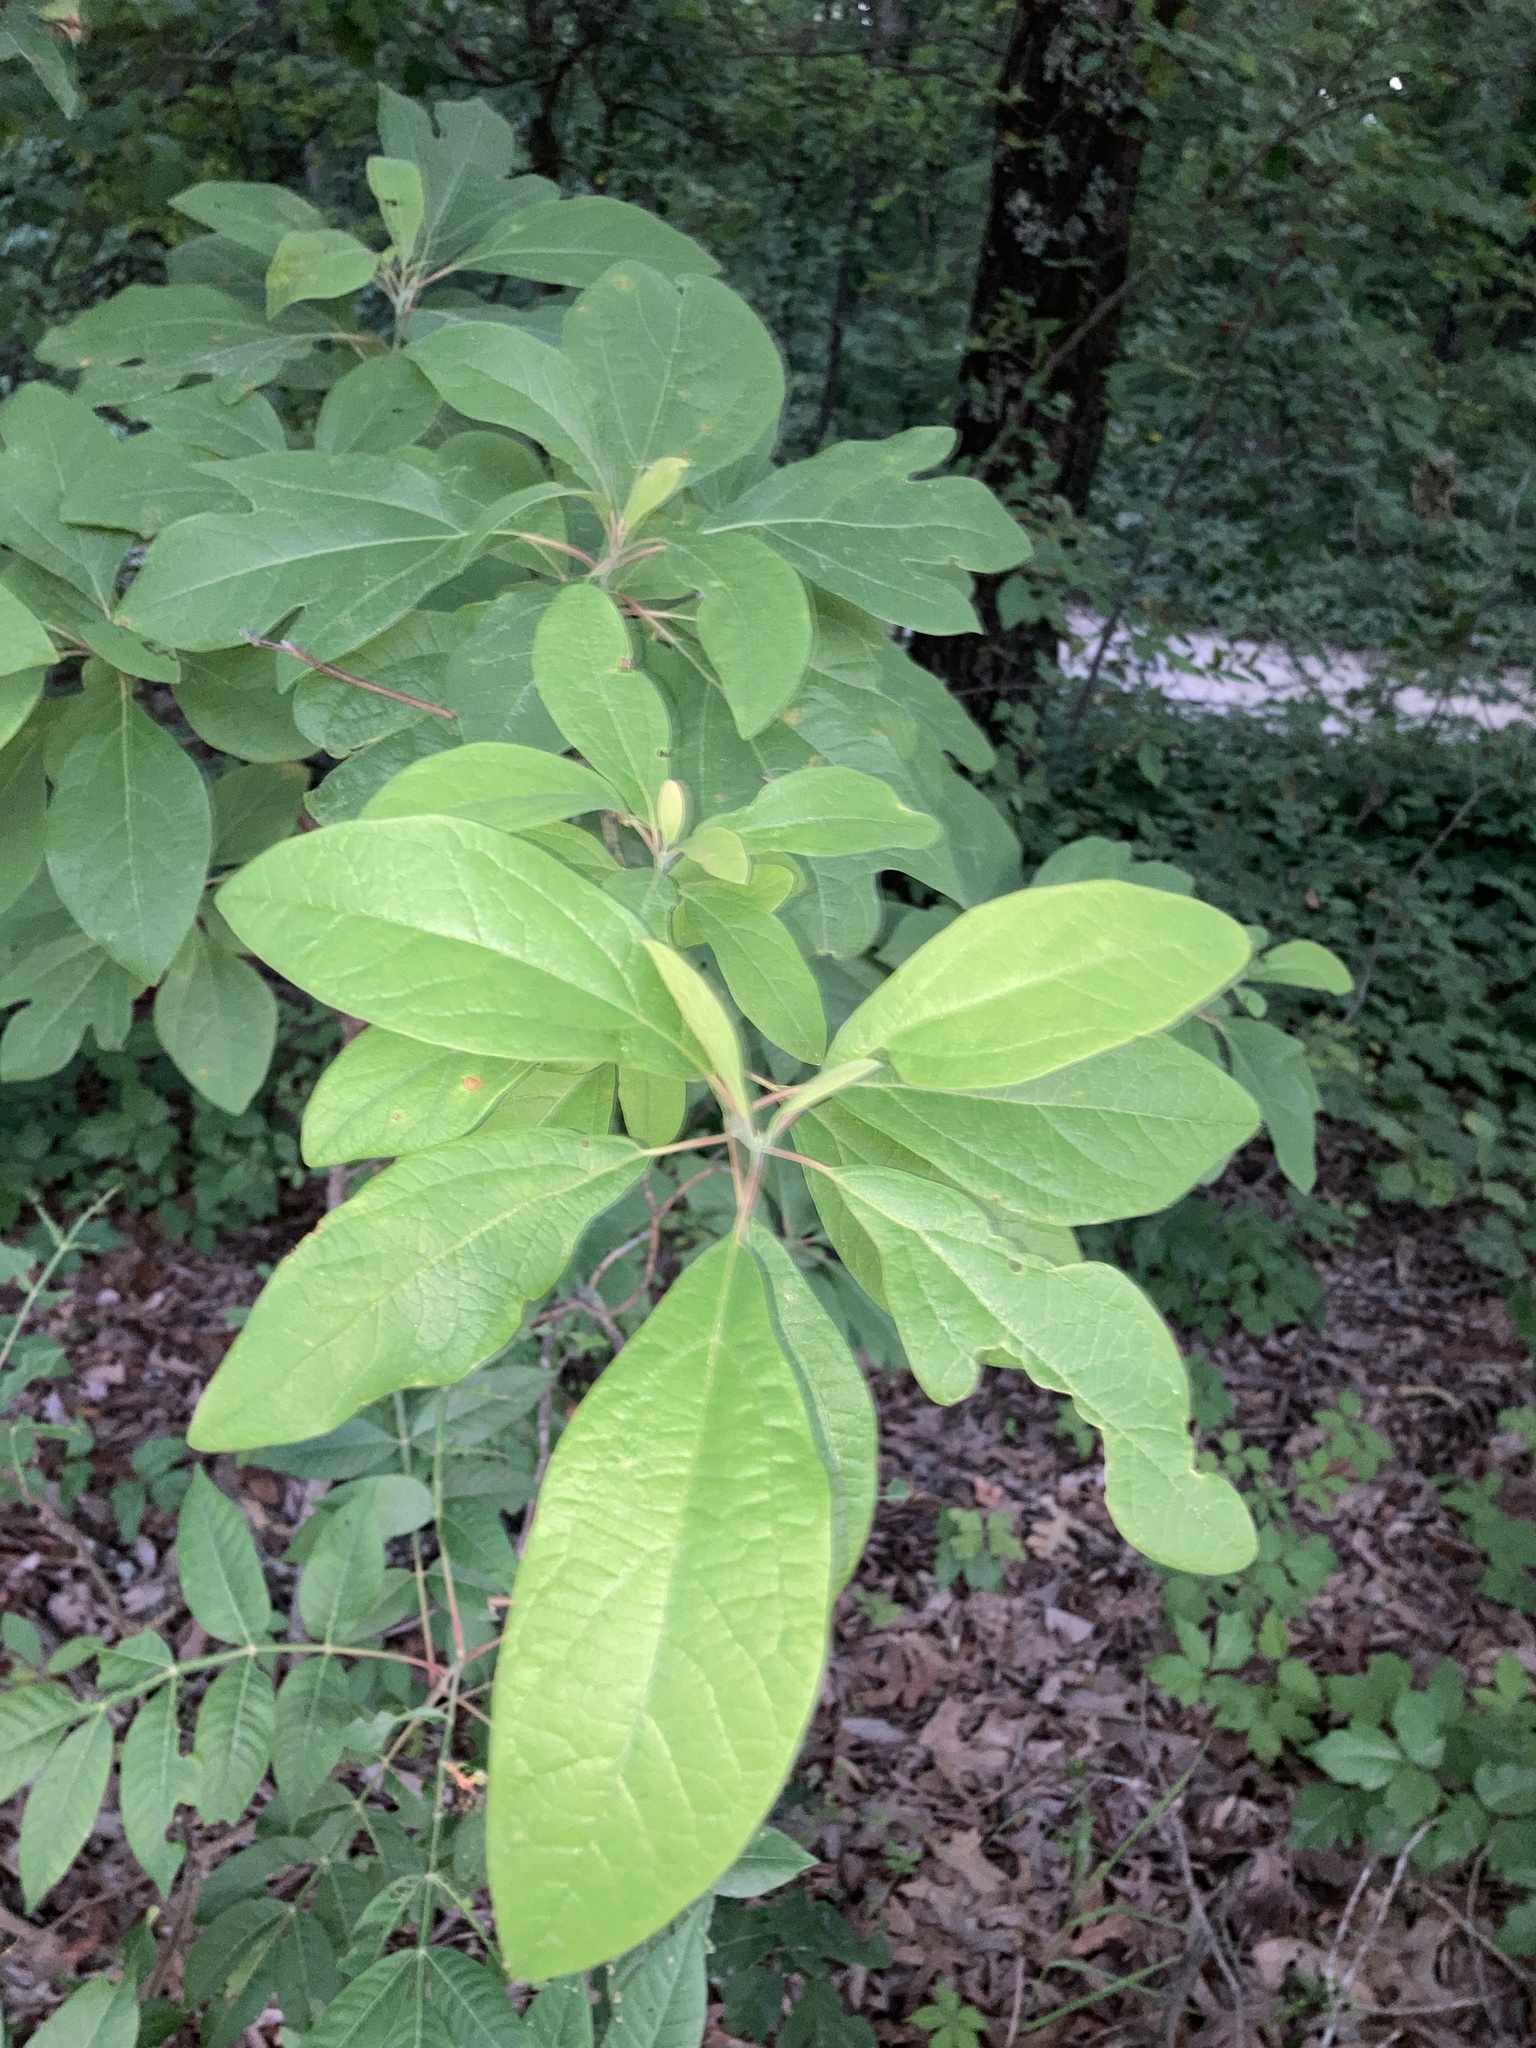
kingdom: Plantae
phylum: Tracheophyta
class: Magnoliopsida
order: Laurales
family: Lauraceae
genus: Sassafras
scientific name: Sassafras albidum
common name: Sassafras
